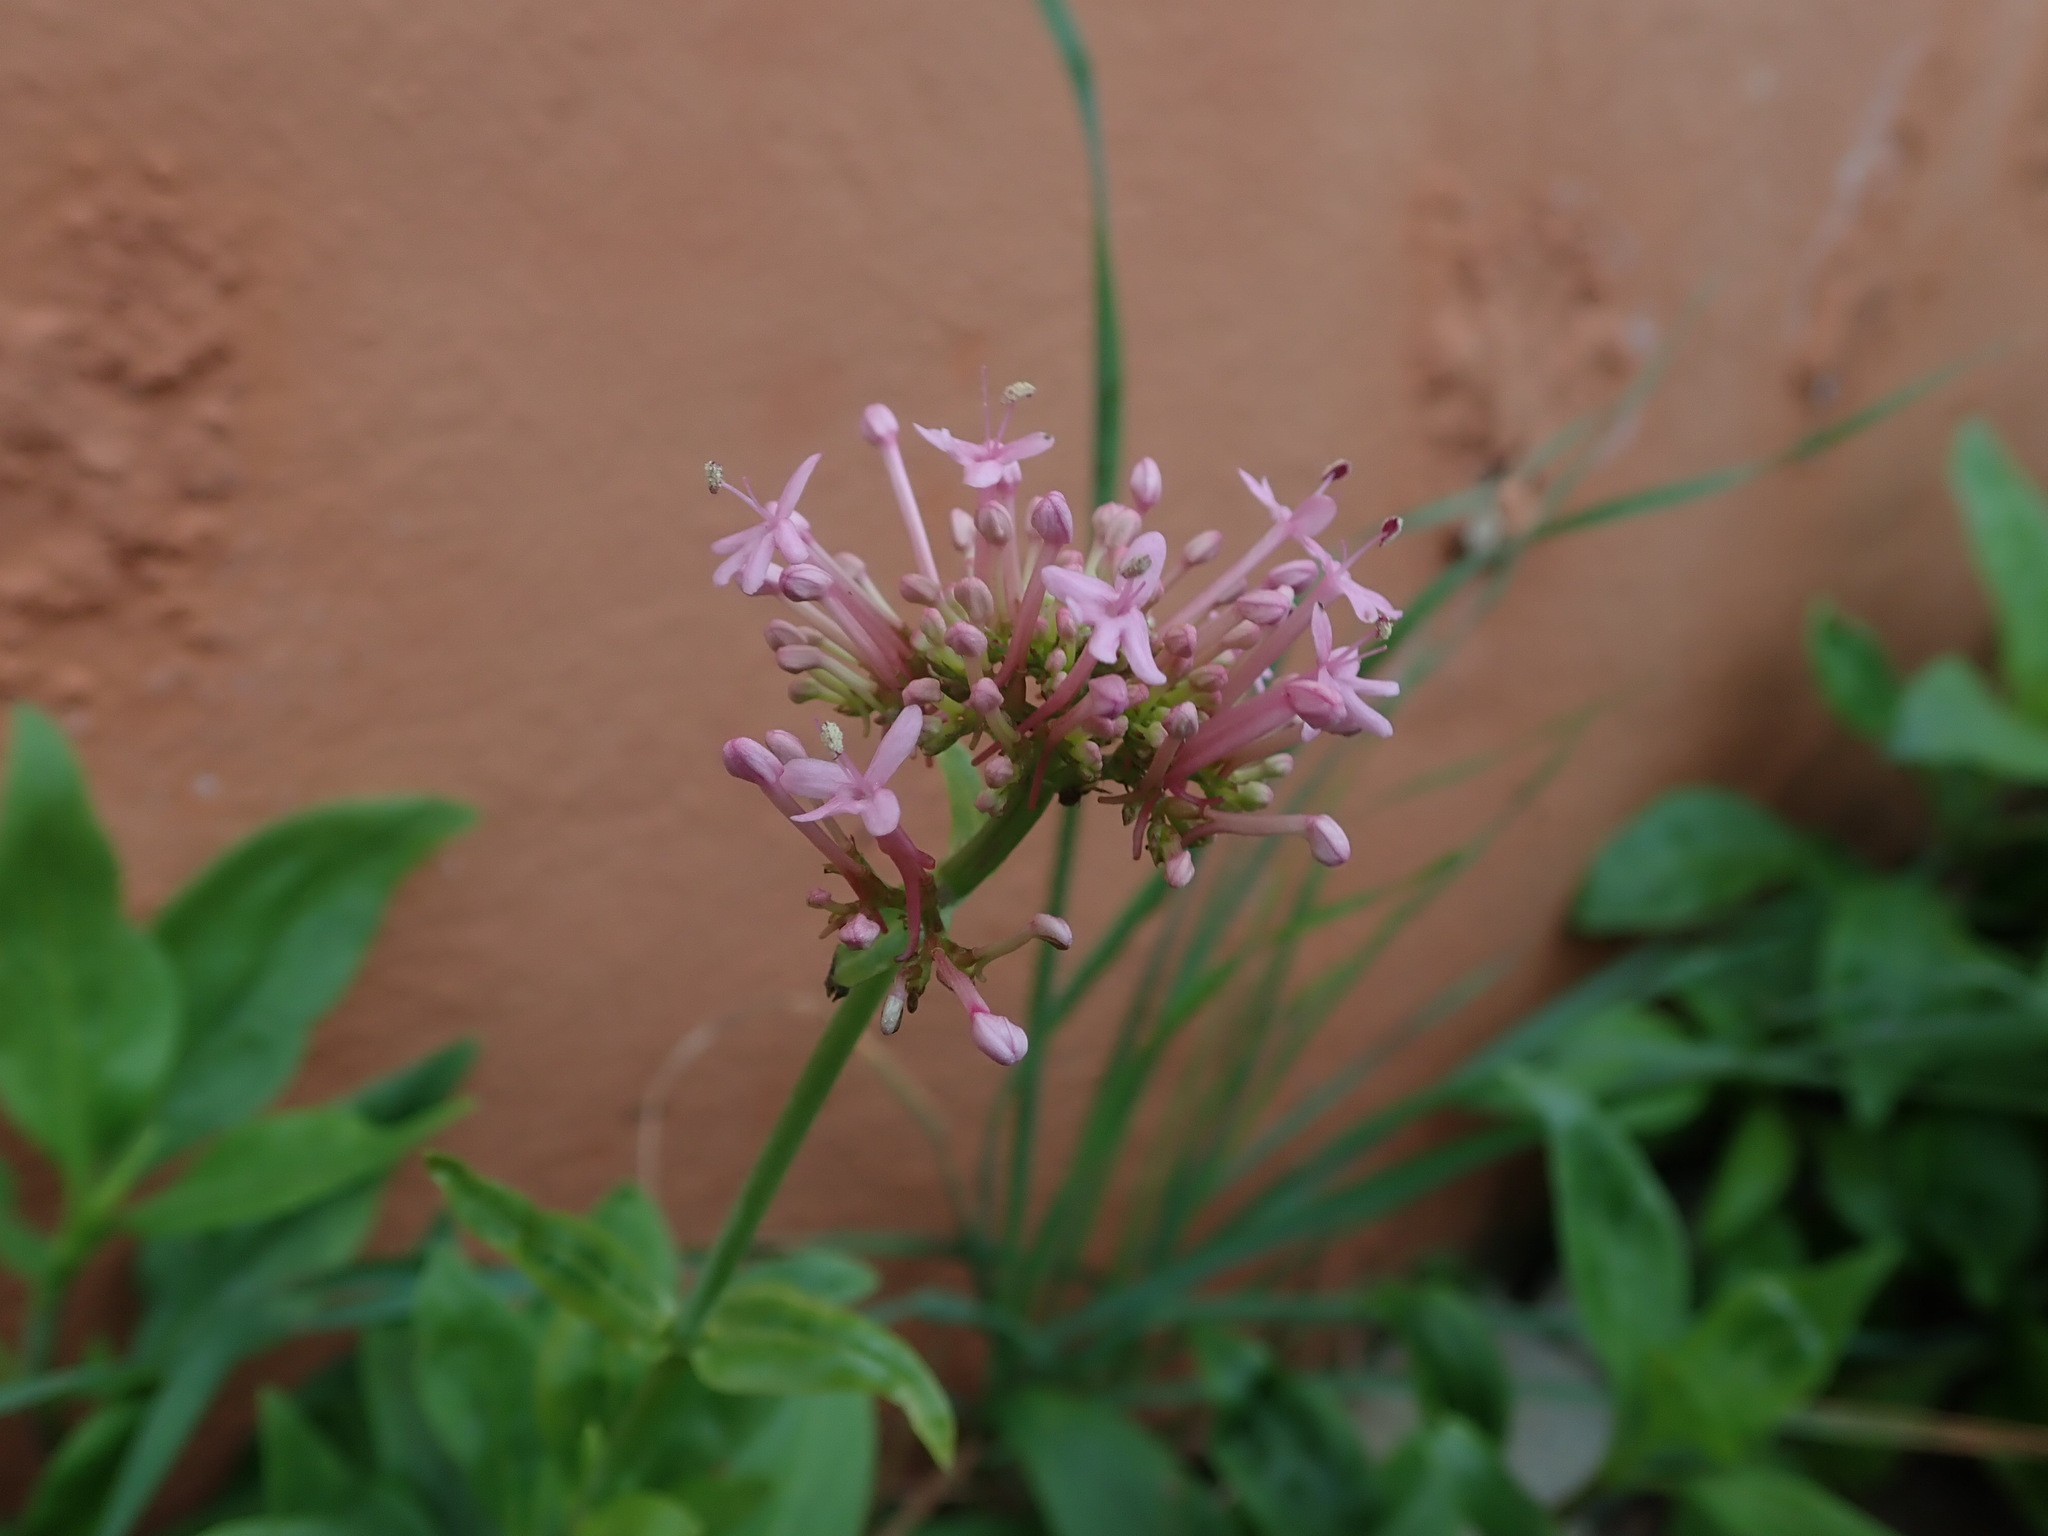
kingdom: Plantae
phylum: Tracheophyta
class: Magnoliopsida
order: Dipsacales
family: Caprifoliaceae
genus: Centranthus
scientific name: Centranthus ruber
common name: Red valerian
